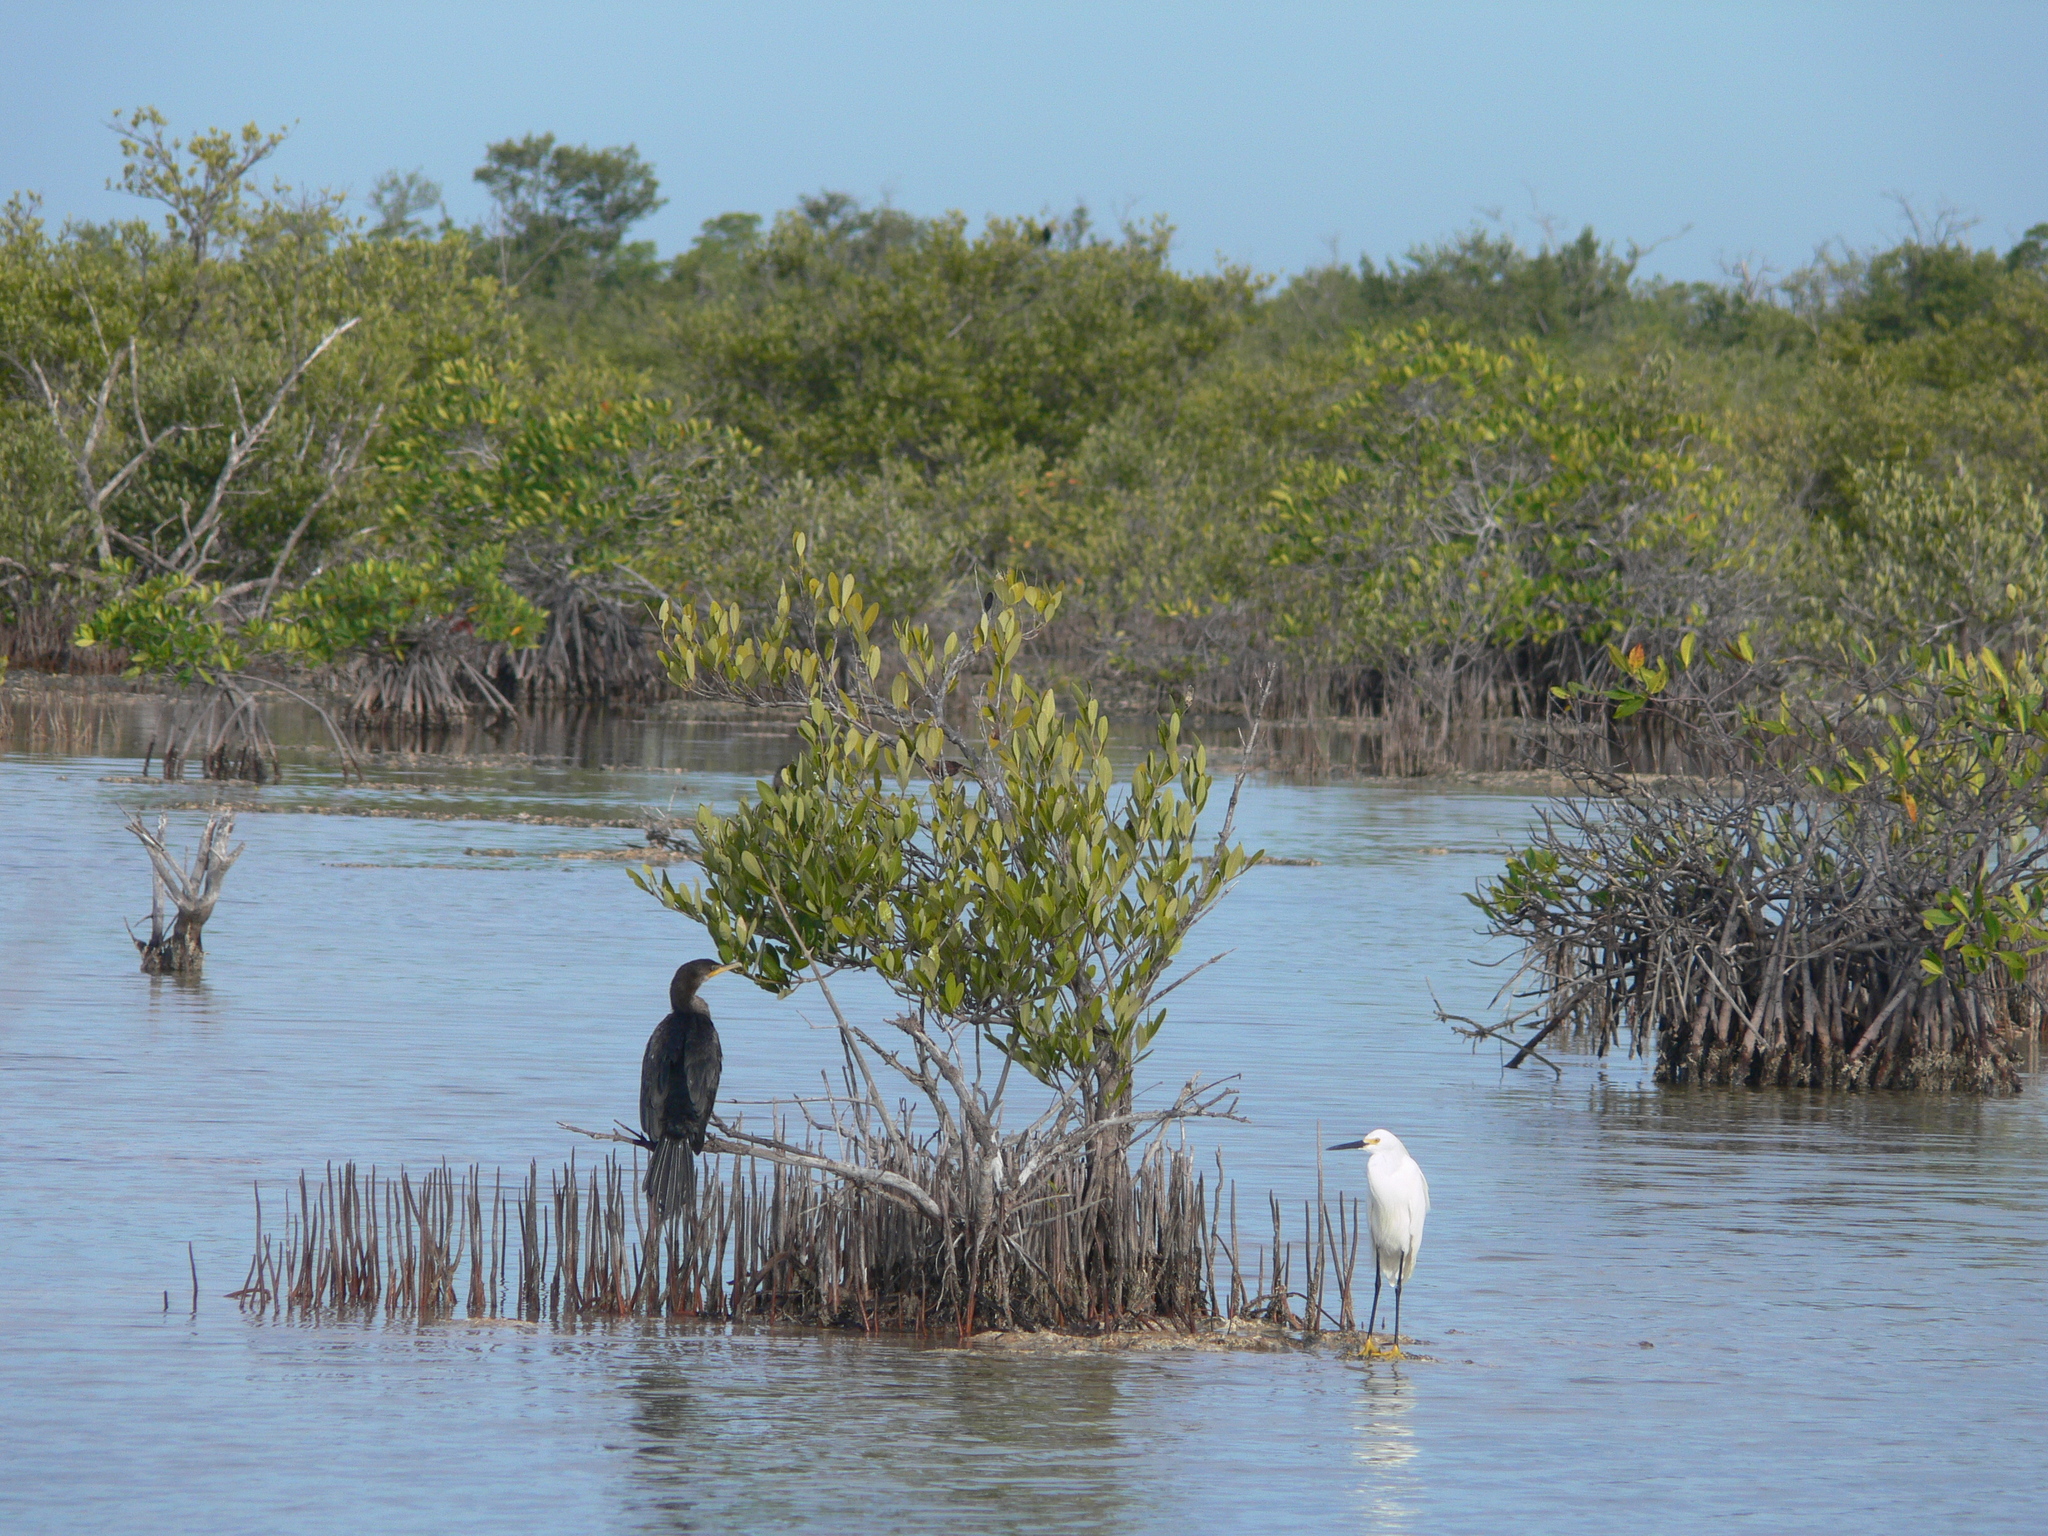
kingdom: Animalia
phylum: Chordata
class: Aves
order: Pelecaniformes
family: Ardeidae
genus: Egretta
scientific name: Egretta thula
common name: Snowy egret
